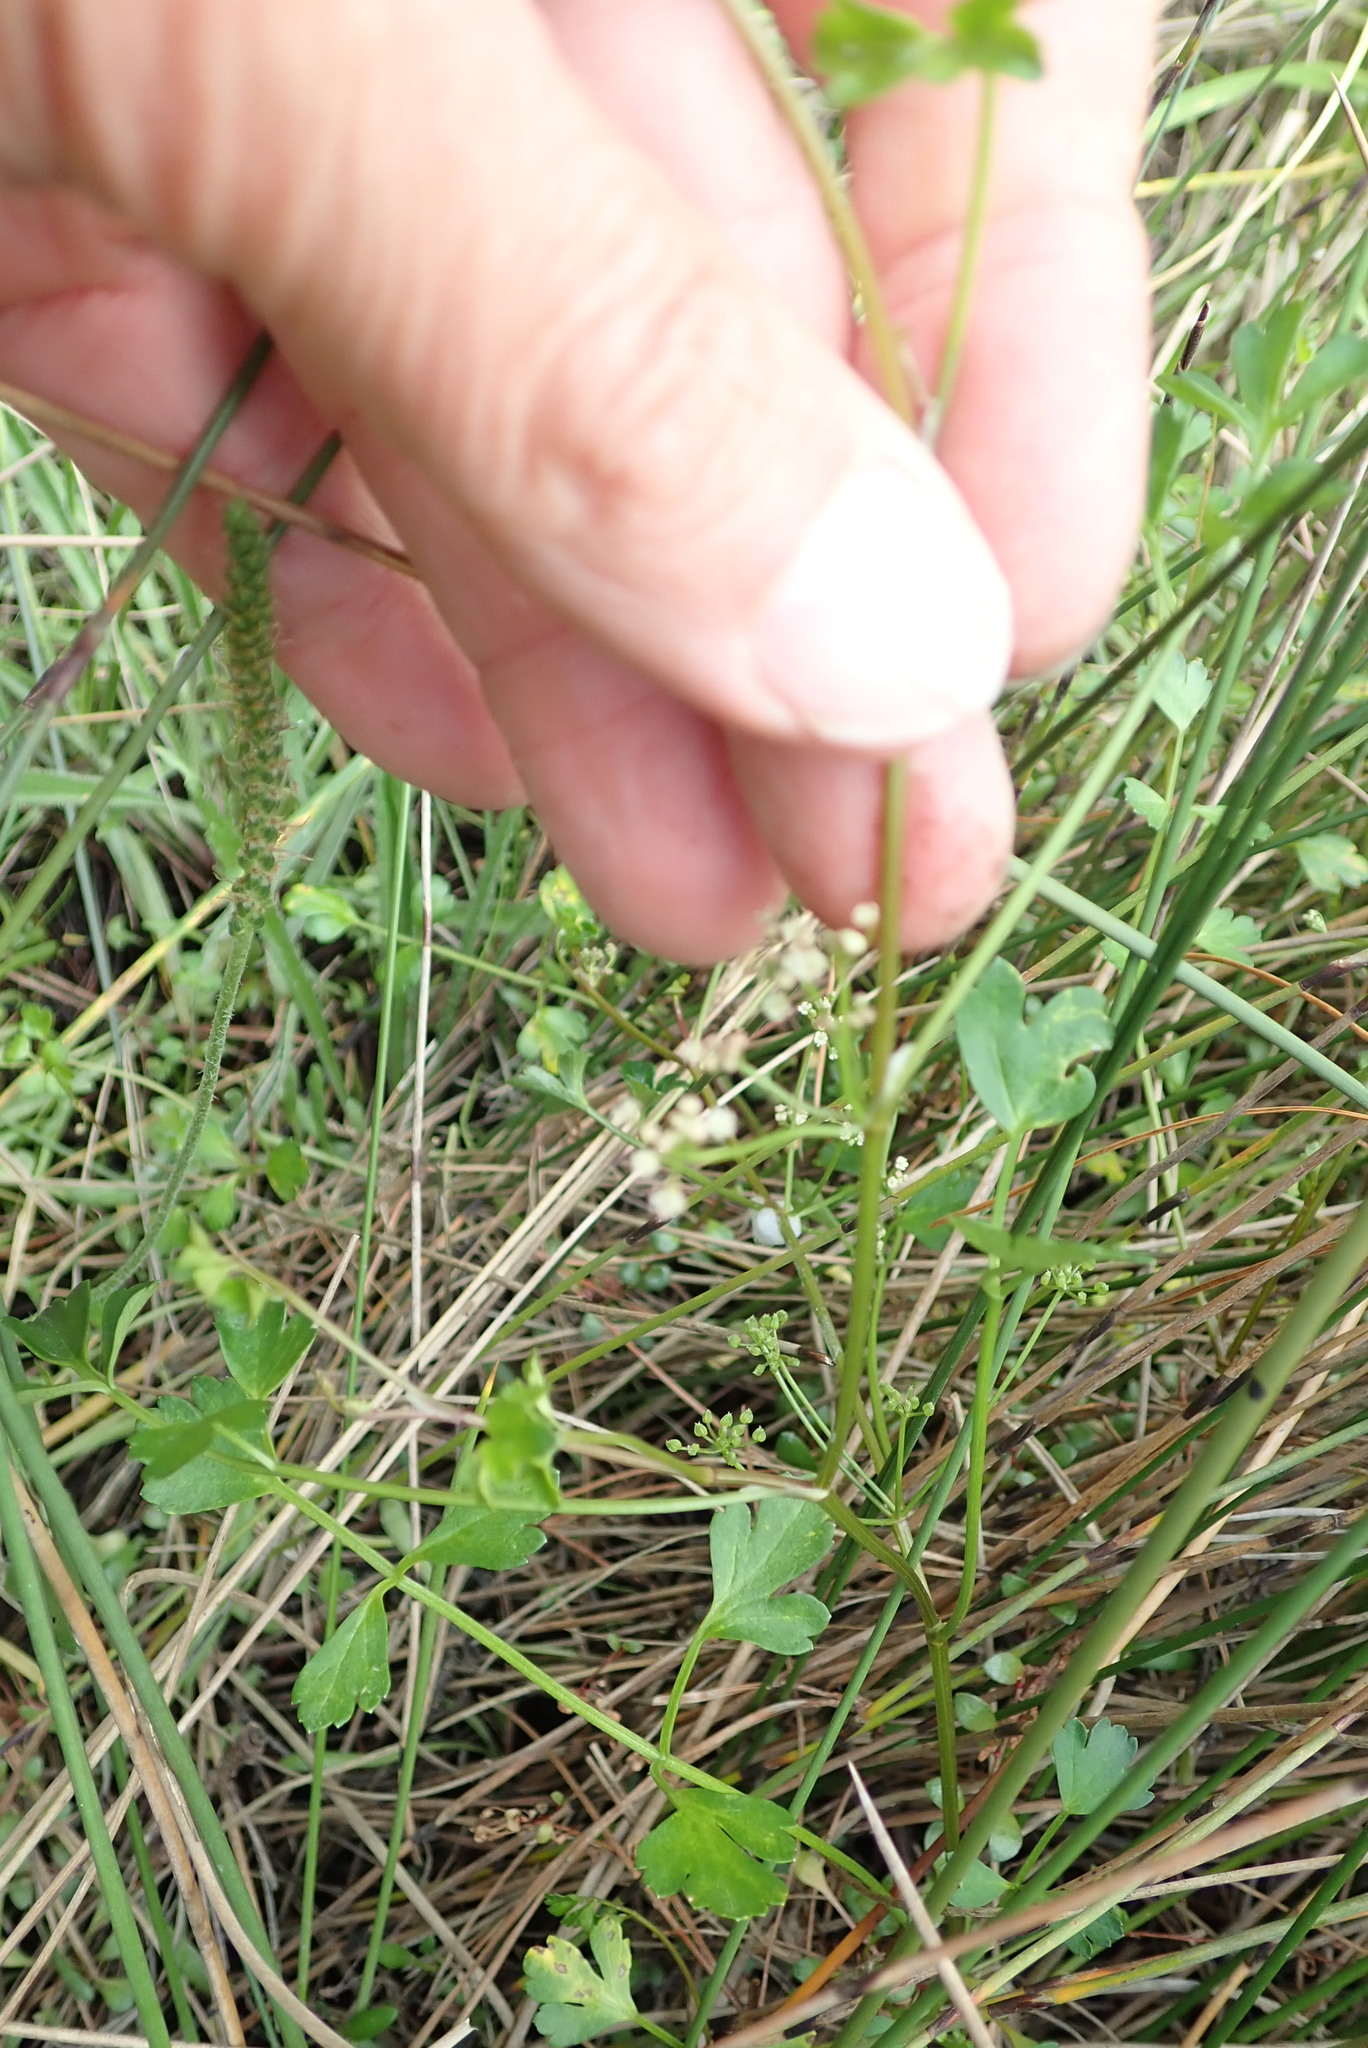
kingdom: Plantae
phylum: Tracheophyta
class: Magnoliopsida
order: Apiales
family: Apiaceae
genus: Apium
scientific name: Apium prostratum
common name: Prostrate marshwort
